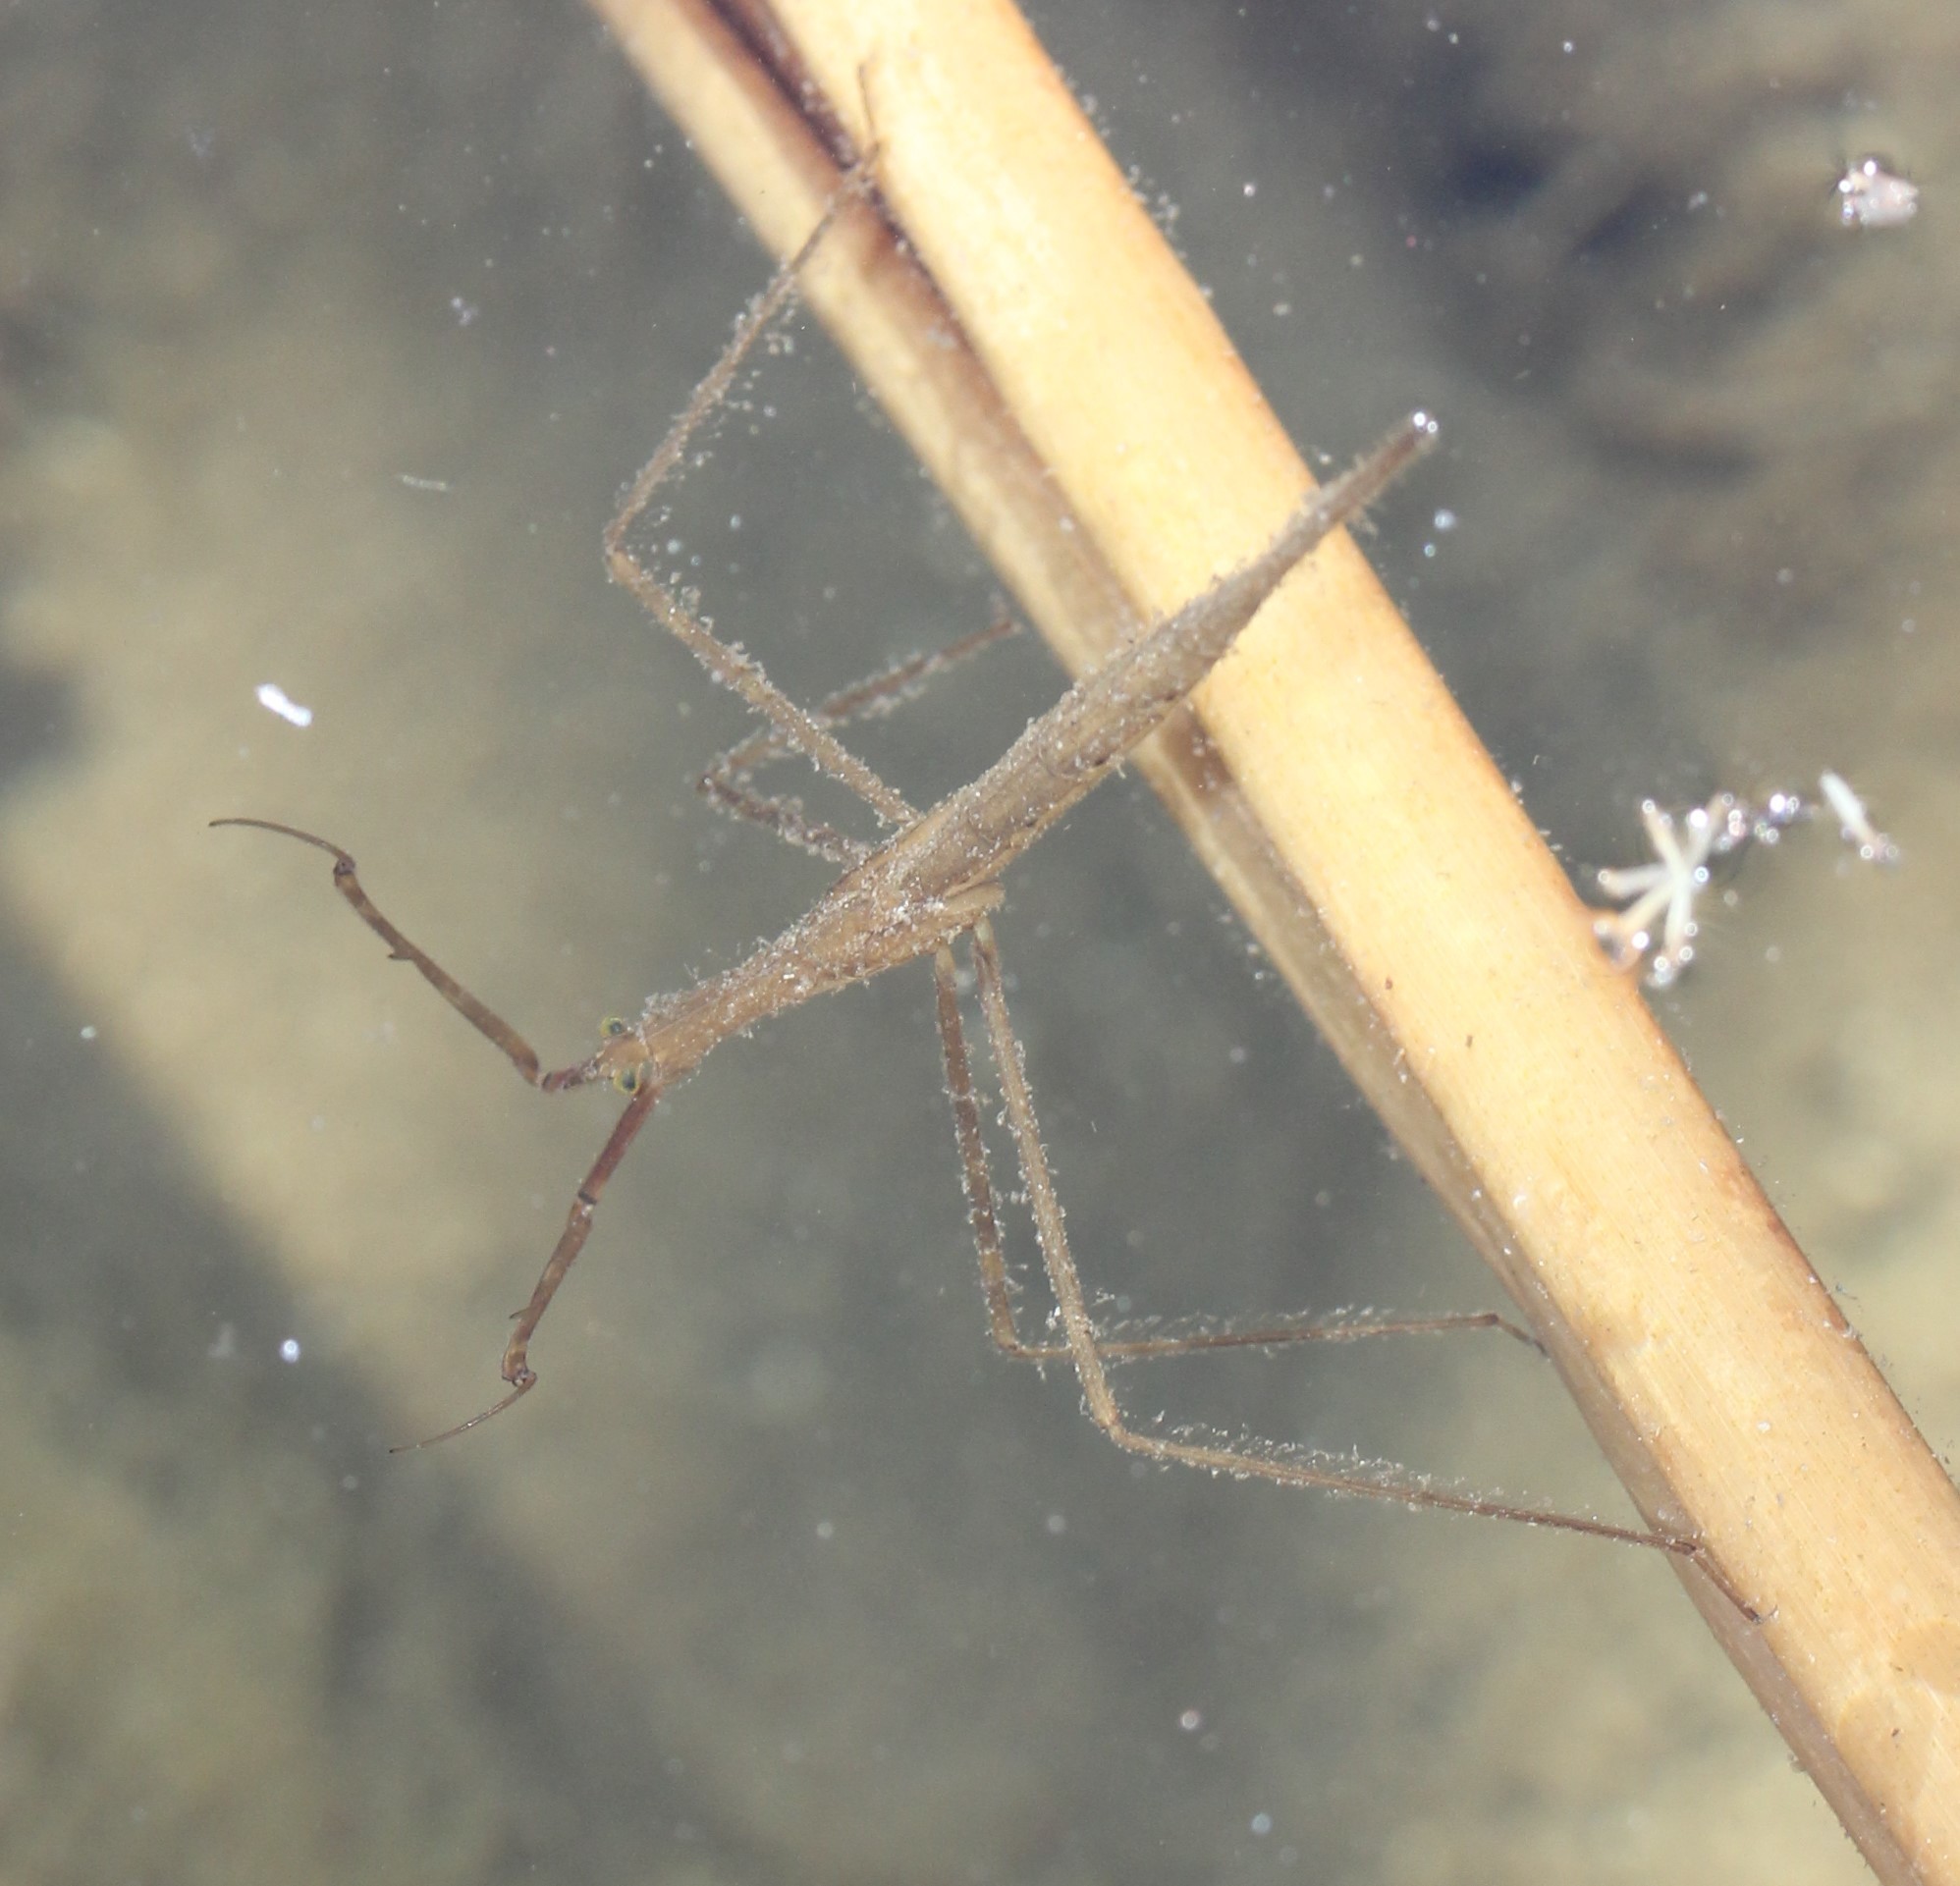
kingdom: Animalia
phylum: Arthropoda
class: Insecta
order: Hemiptera
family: Nepidae
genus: Ranatra
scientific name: Ranatra quadridentata
